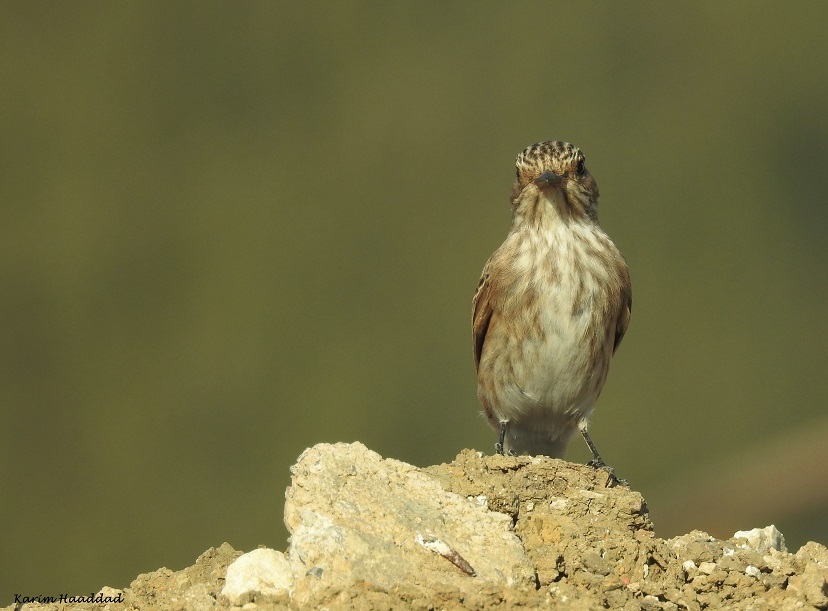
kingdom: Animalia
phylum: Chordata
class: Aves
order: Passeriformes
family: Muscicapidae
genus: Muscicapa
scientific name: Muscicapa striata
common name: Spotted flycatcher
